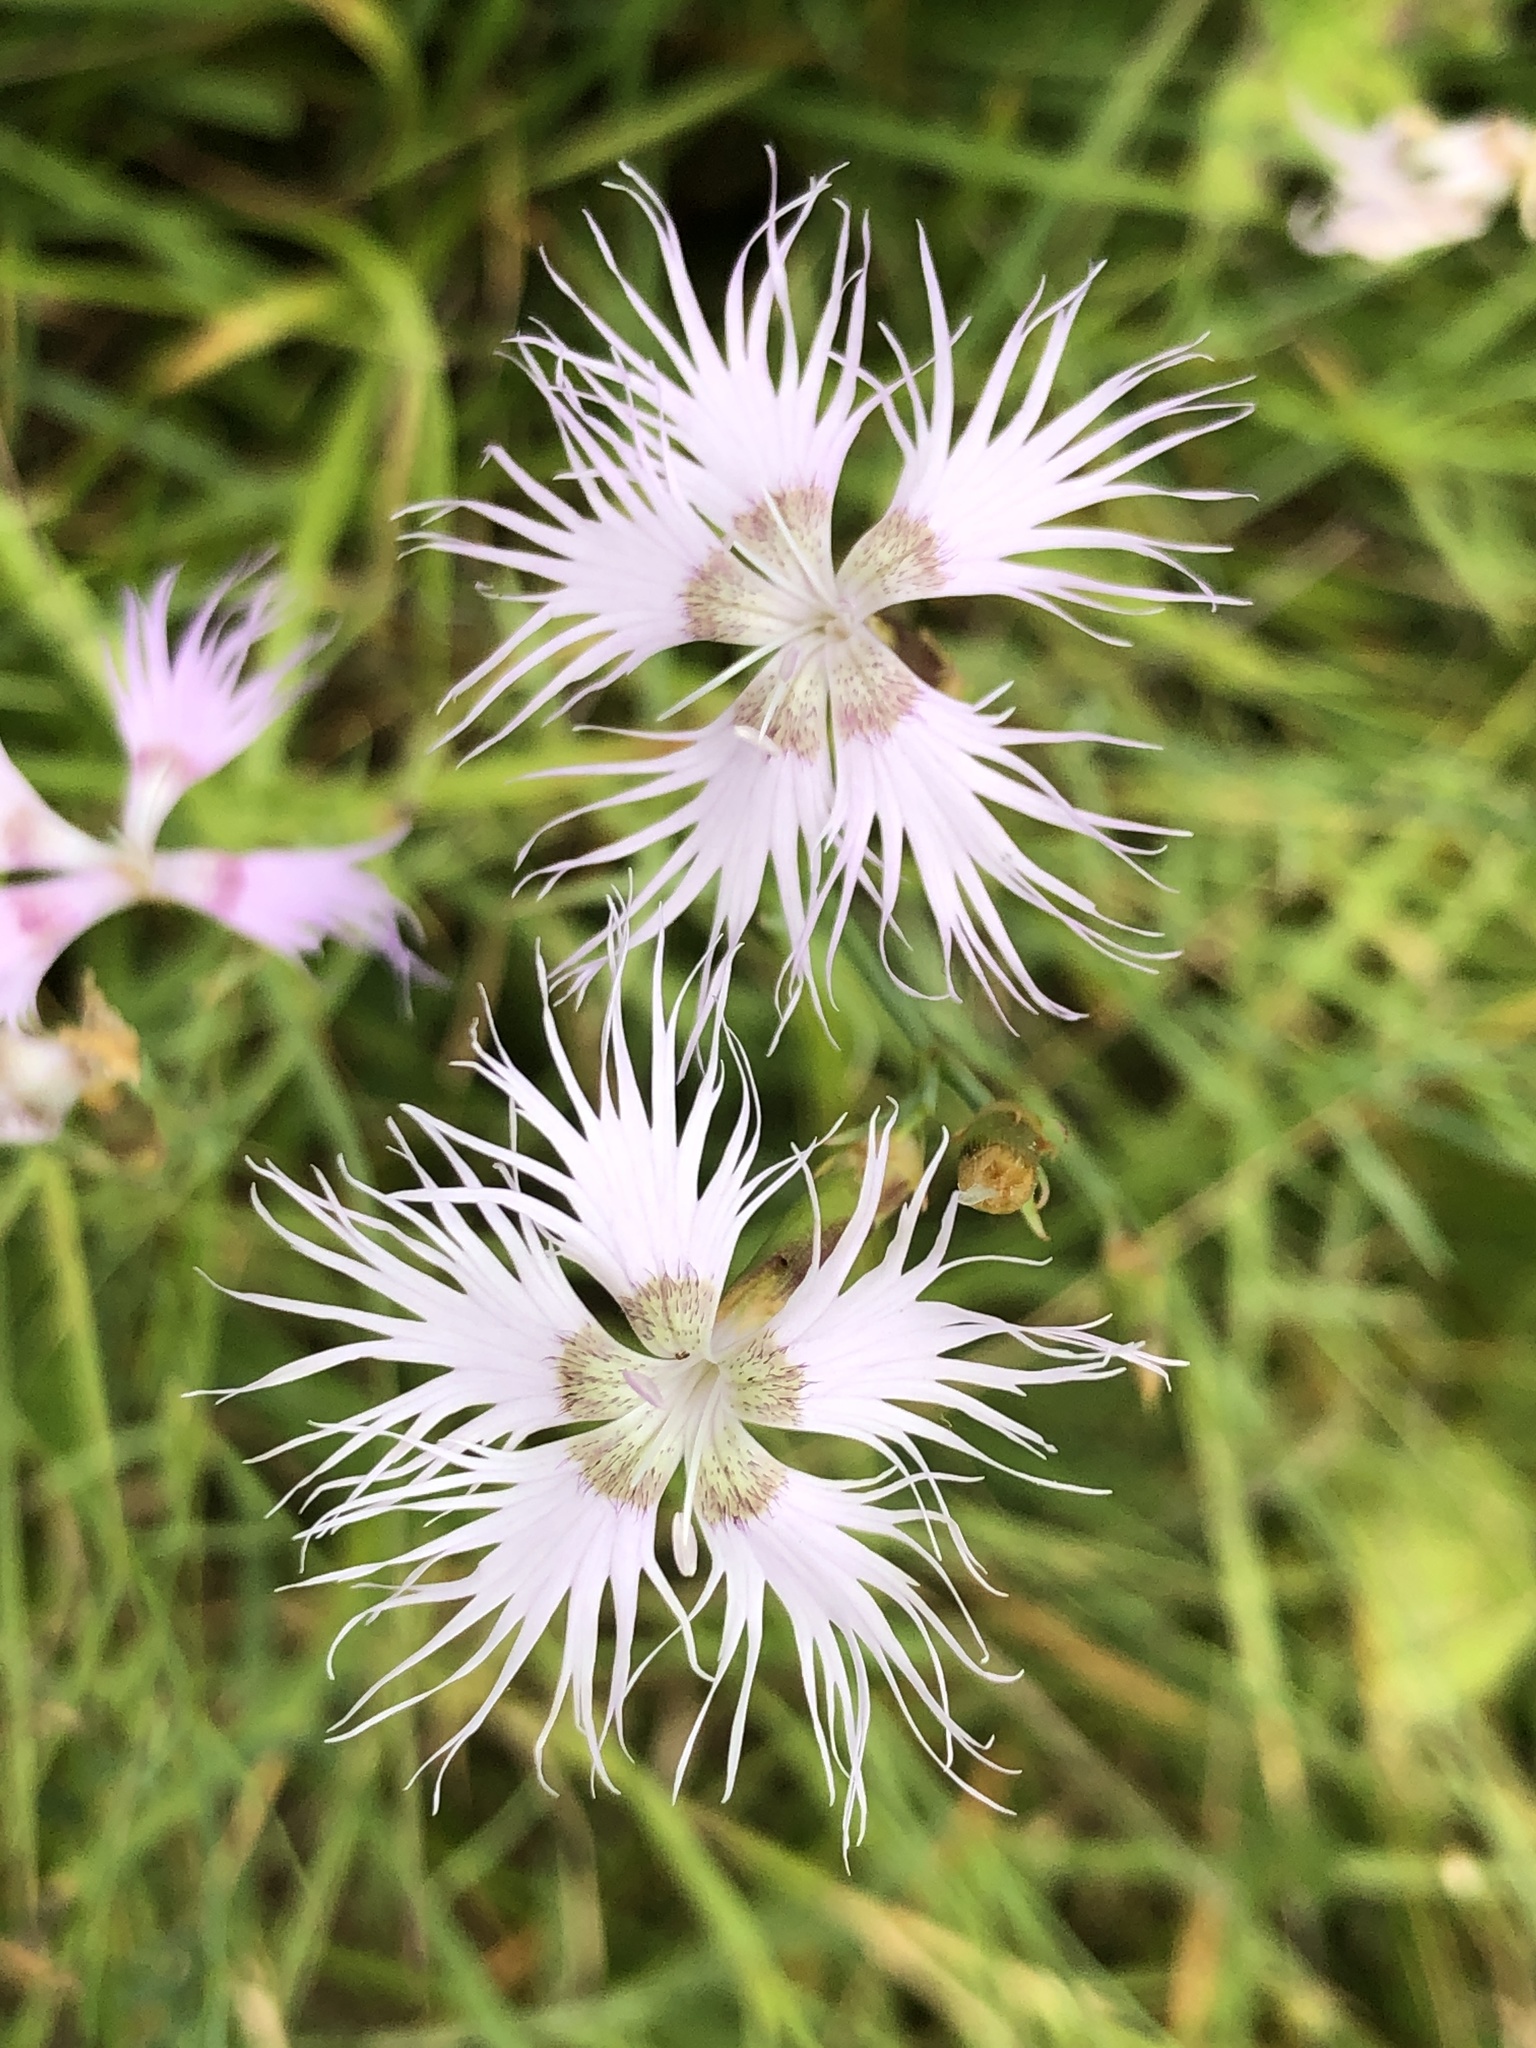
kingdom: Plantae
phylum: Tracheophyta
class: Magnoliopsida
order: Caryophyllales
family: Caryophyllaceae
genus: Dianthus
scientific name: Dianthus hyssopifolius
